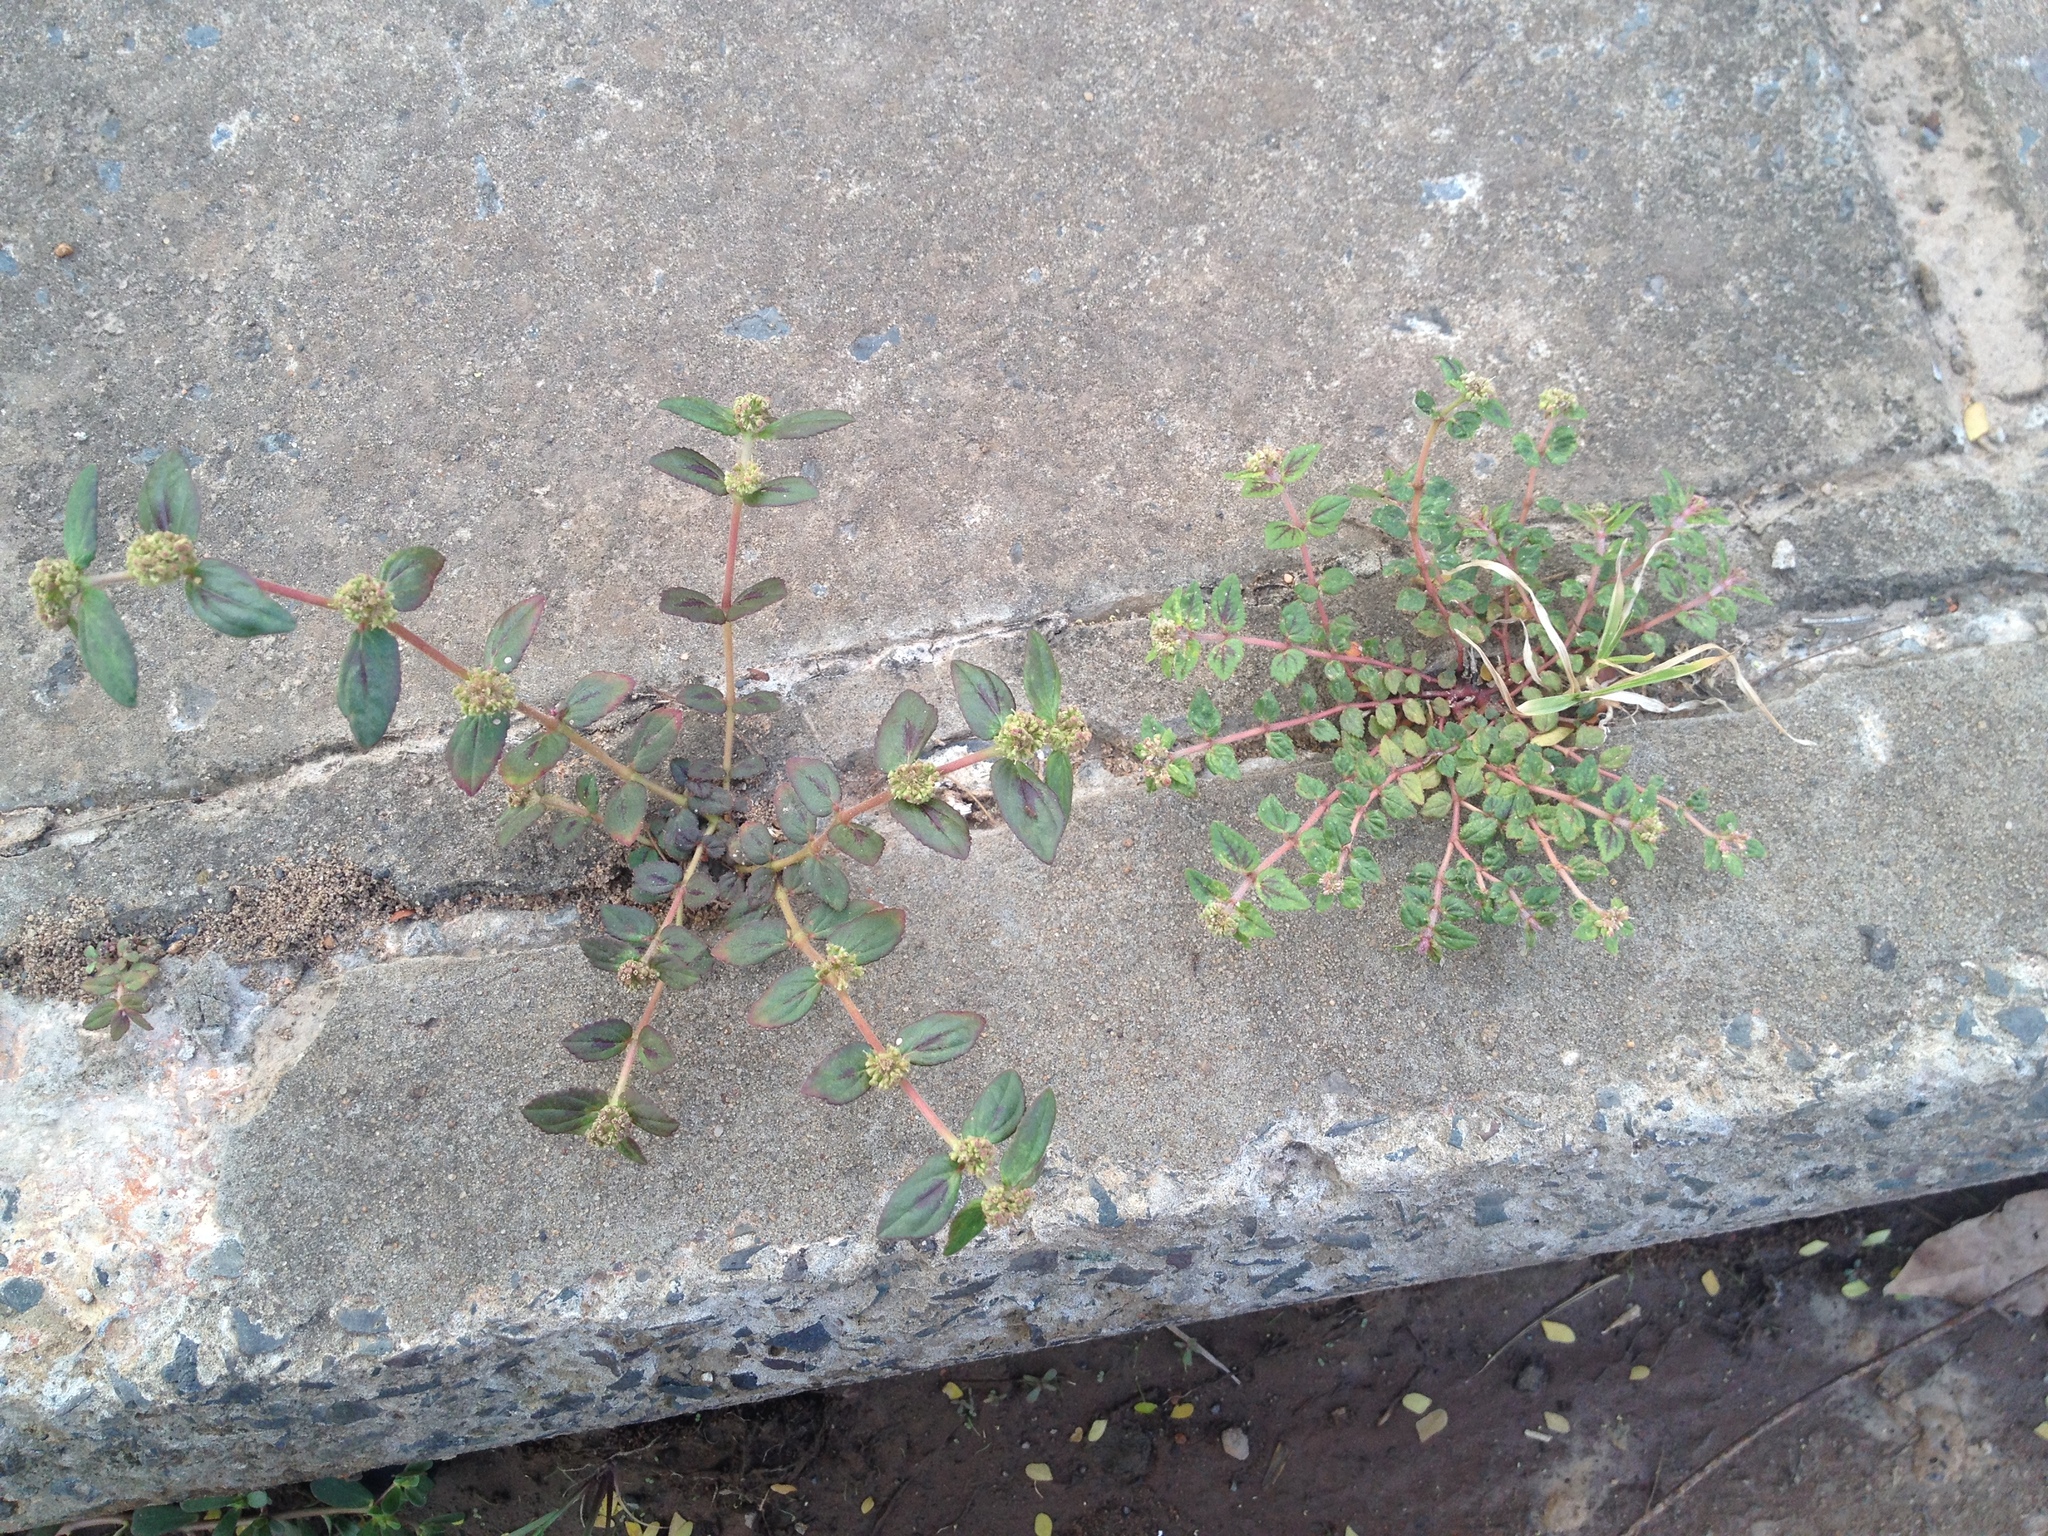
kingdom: Plantae
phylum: Tracheophyta
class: Magnoliopsida
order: Malpighiales
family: Euphorbiaceae
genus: Euphorbia
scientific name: Euphorbia ophthalmica
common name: Florida hammock sandmat
